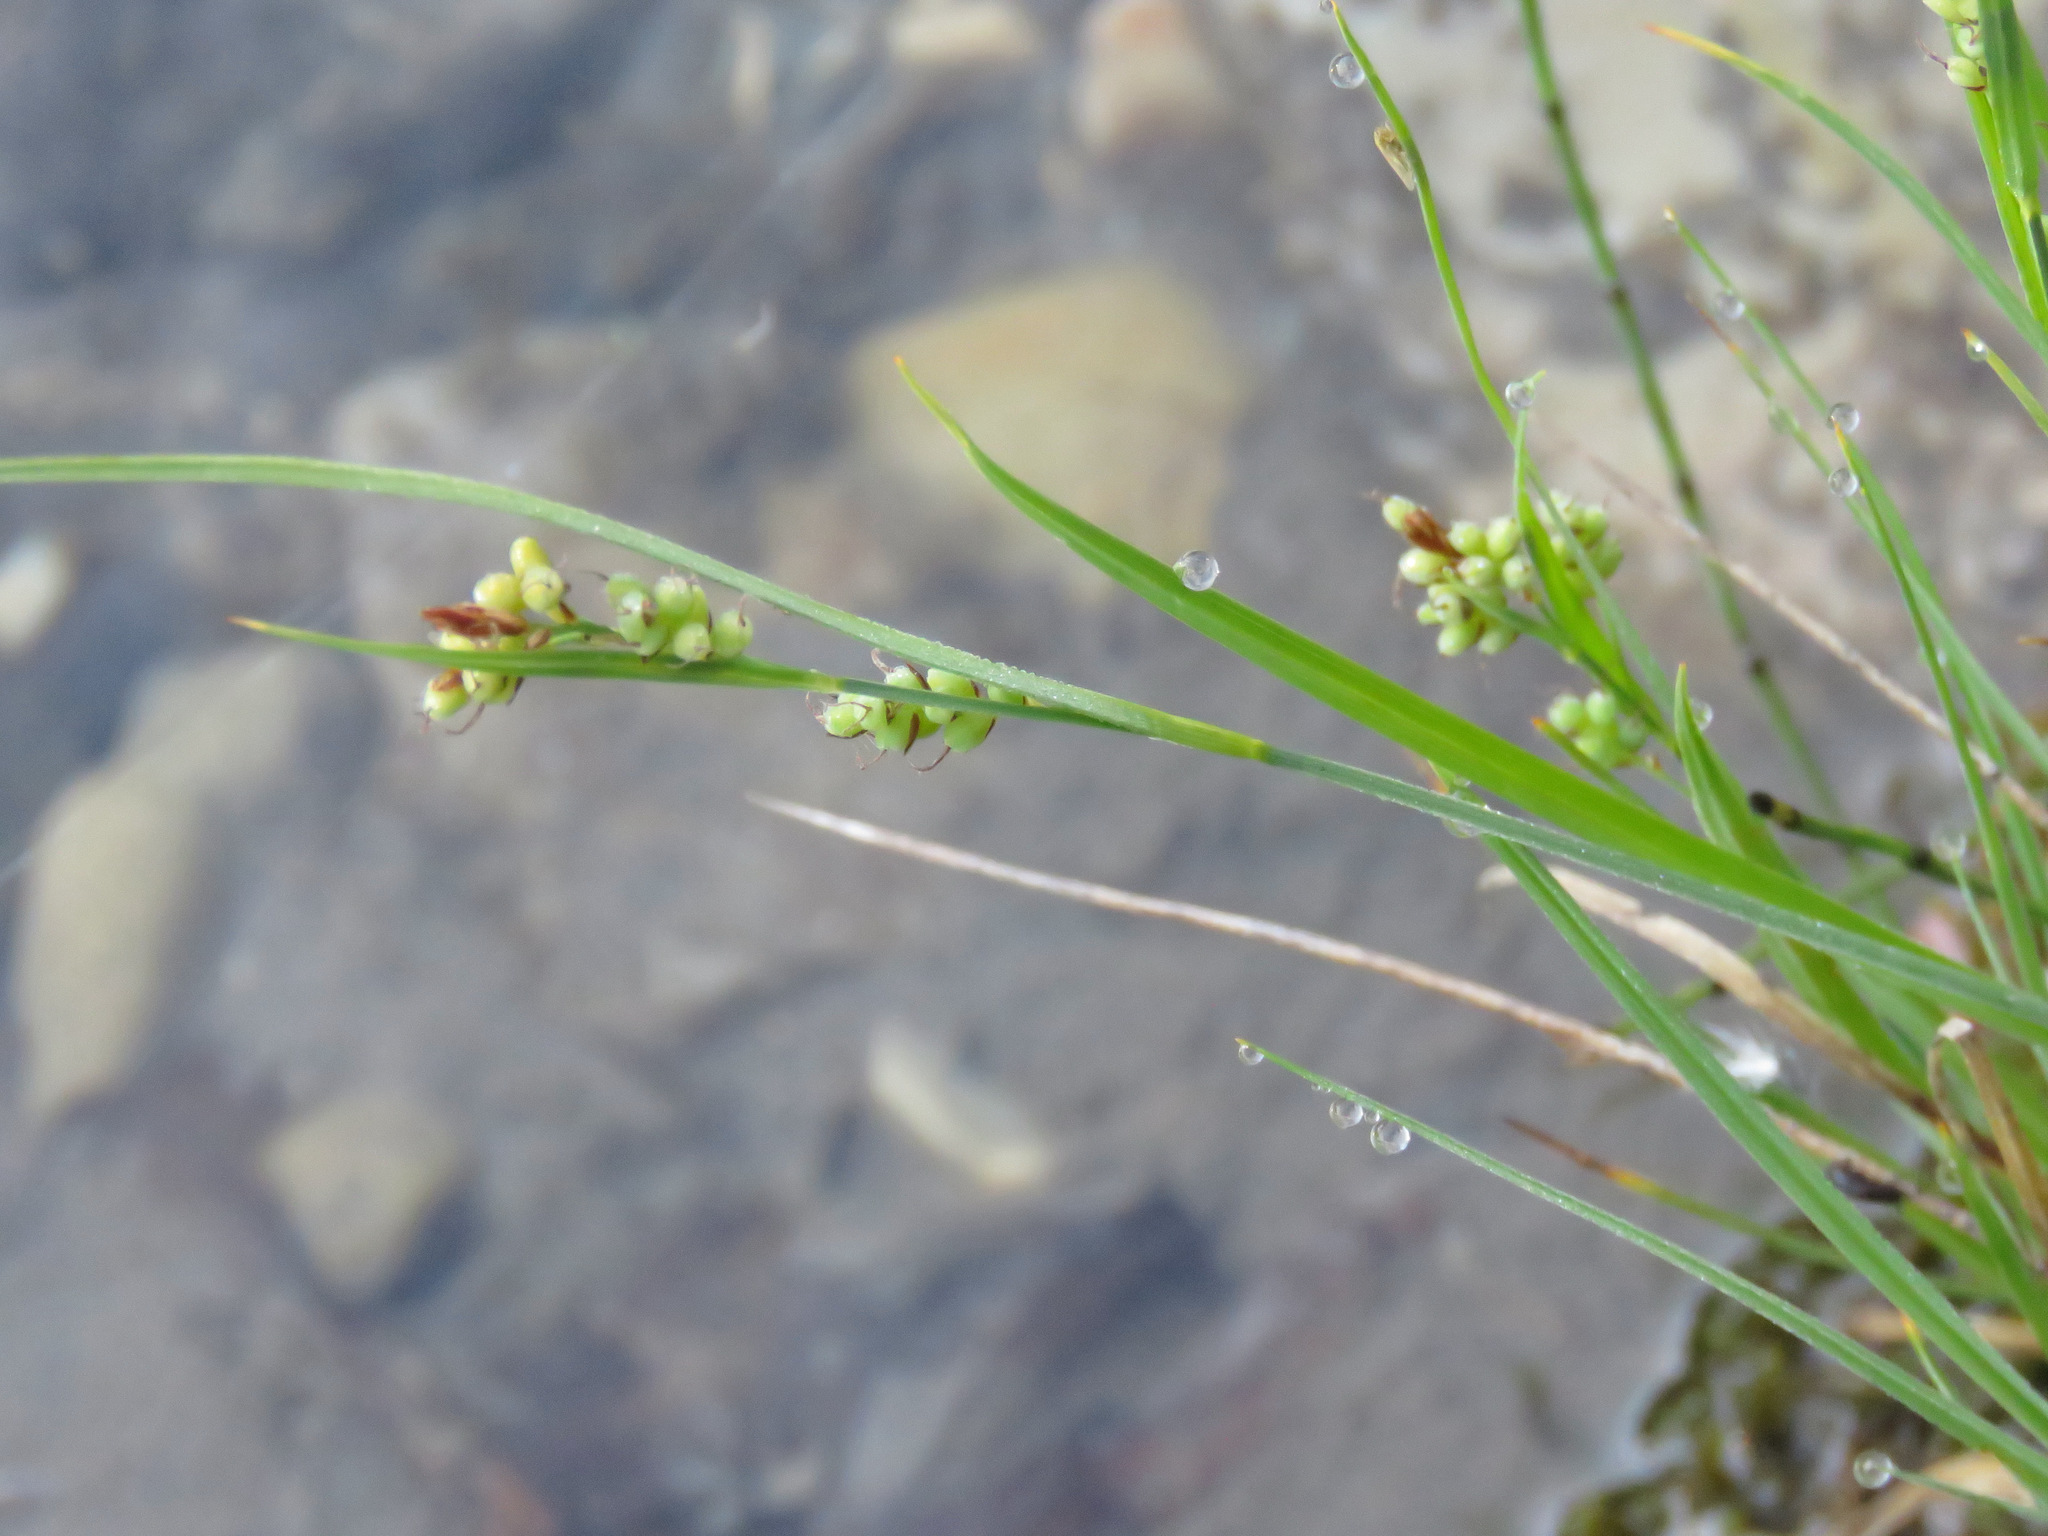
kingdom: Plantae
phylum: Tracheophyta
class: Liliopsida
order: Poales
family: Cyperaceae
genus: Carex
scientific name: Carex aurea
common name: Golden sedge
